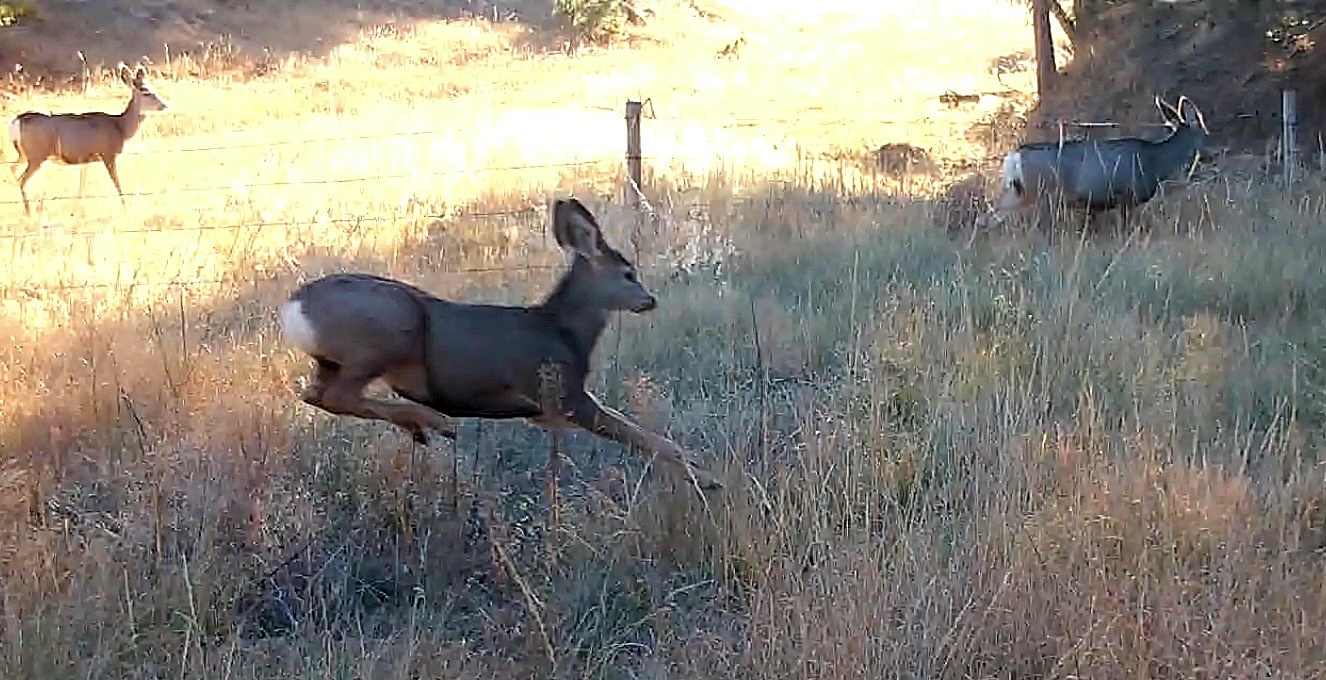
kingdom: Animalia
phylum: Chordata
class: Mammalia
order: Artiodactyla
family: Cervidae
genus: Odocoileus
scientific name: Odocoileus hemionus
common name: Mule deer
